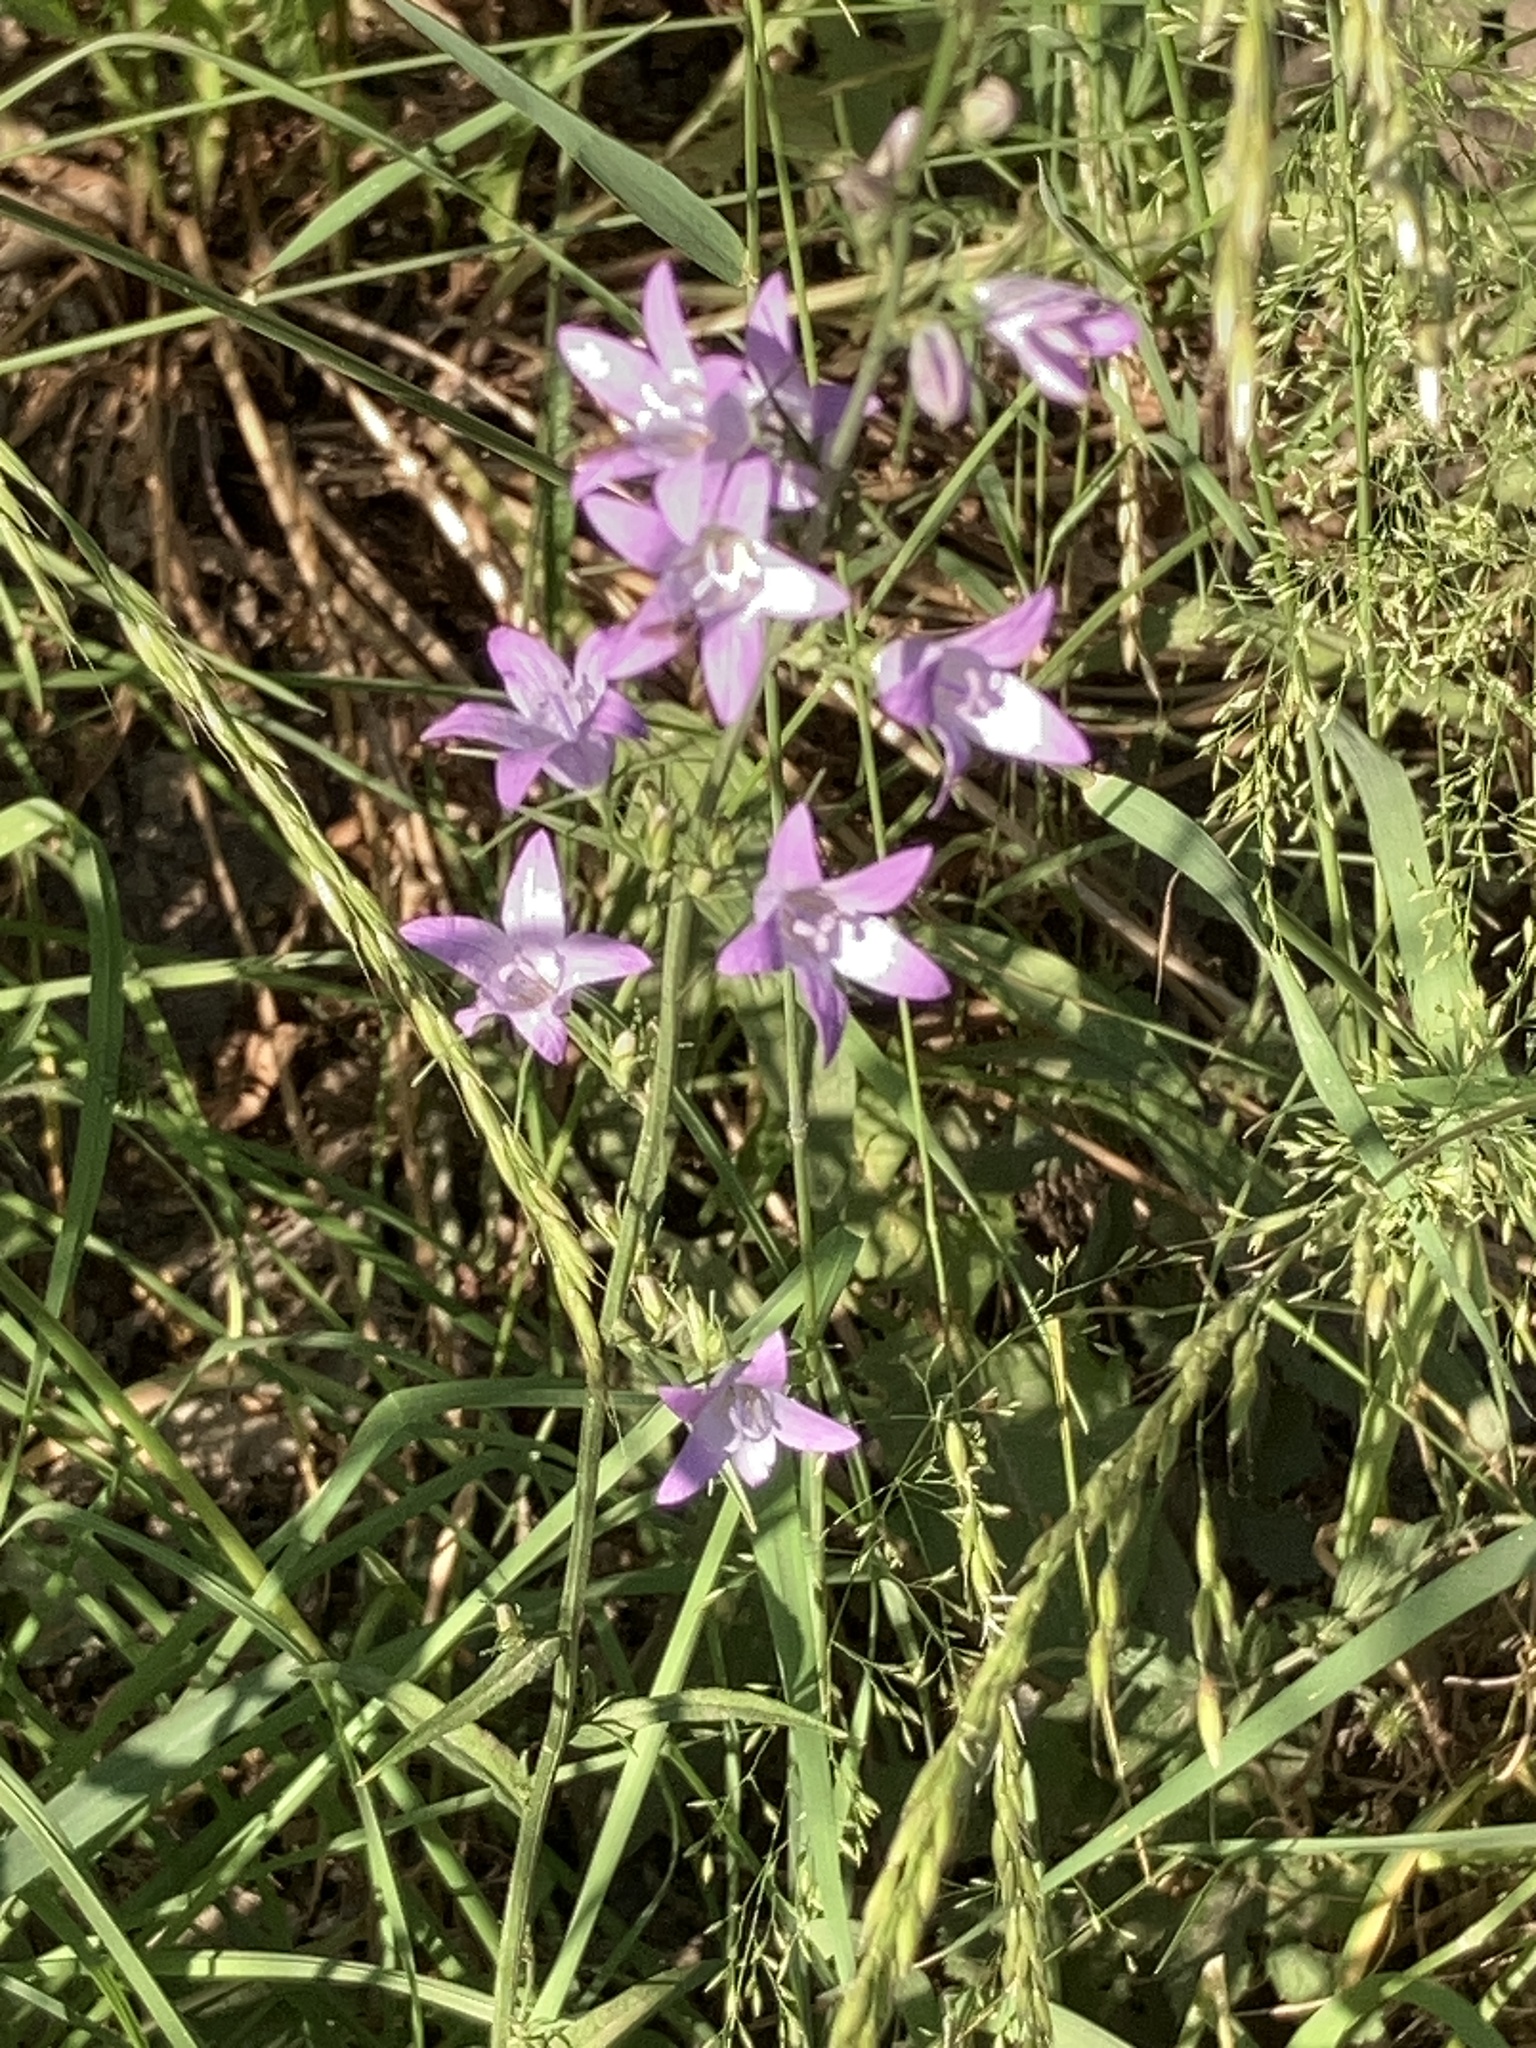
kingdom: Plantae
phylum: Tracheophyta
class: Magnoliopsida
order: Asterales
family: Campanulaceae
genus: Campanula
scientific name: Campanula rapunculus
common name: Rampion bellflower
